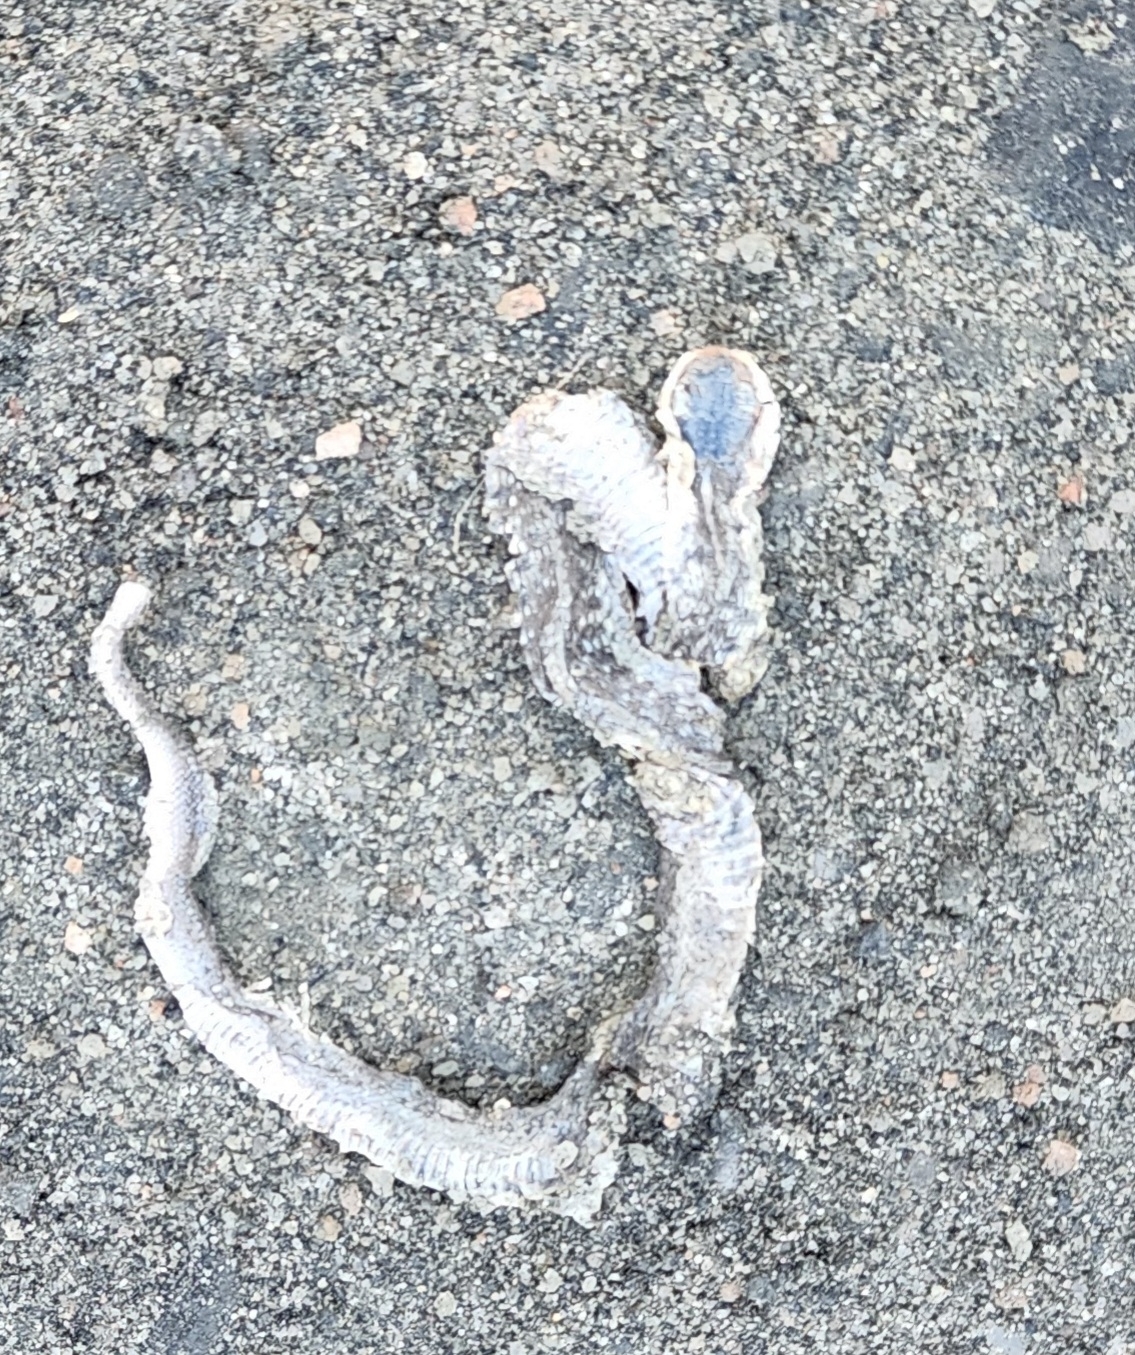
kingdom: Animalia
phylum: Chordata
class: Squamata
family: Colubridae
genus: Thamnophis
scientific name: Thamnophis sirtalis
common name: Common garter snake
